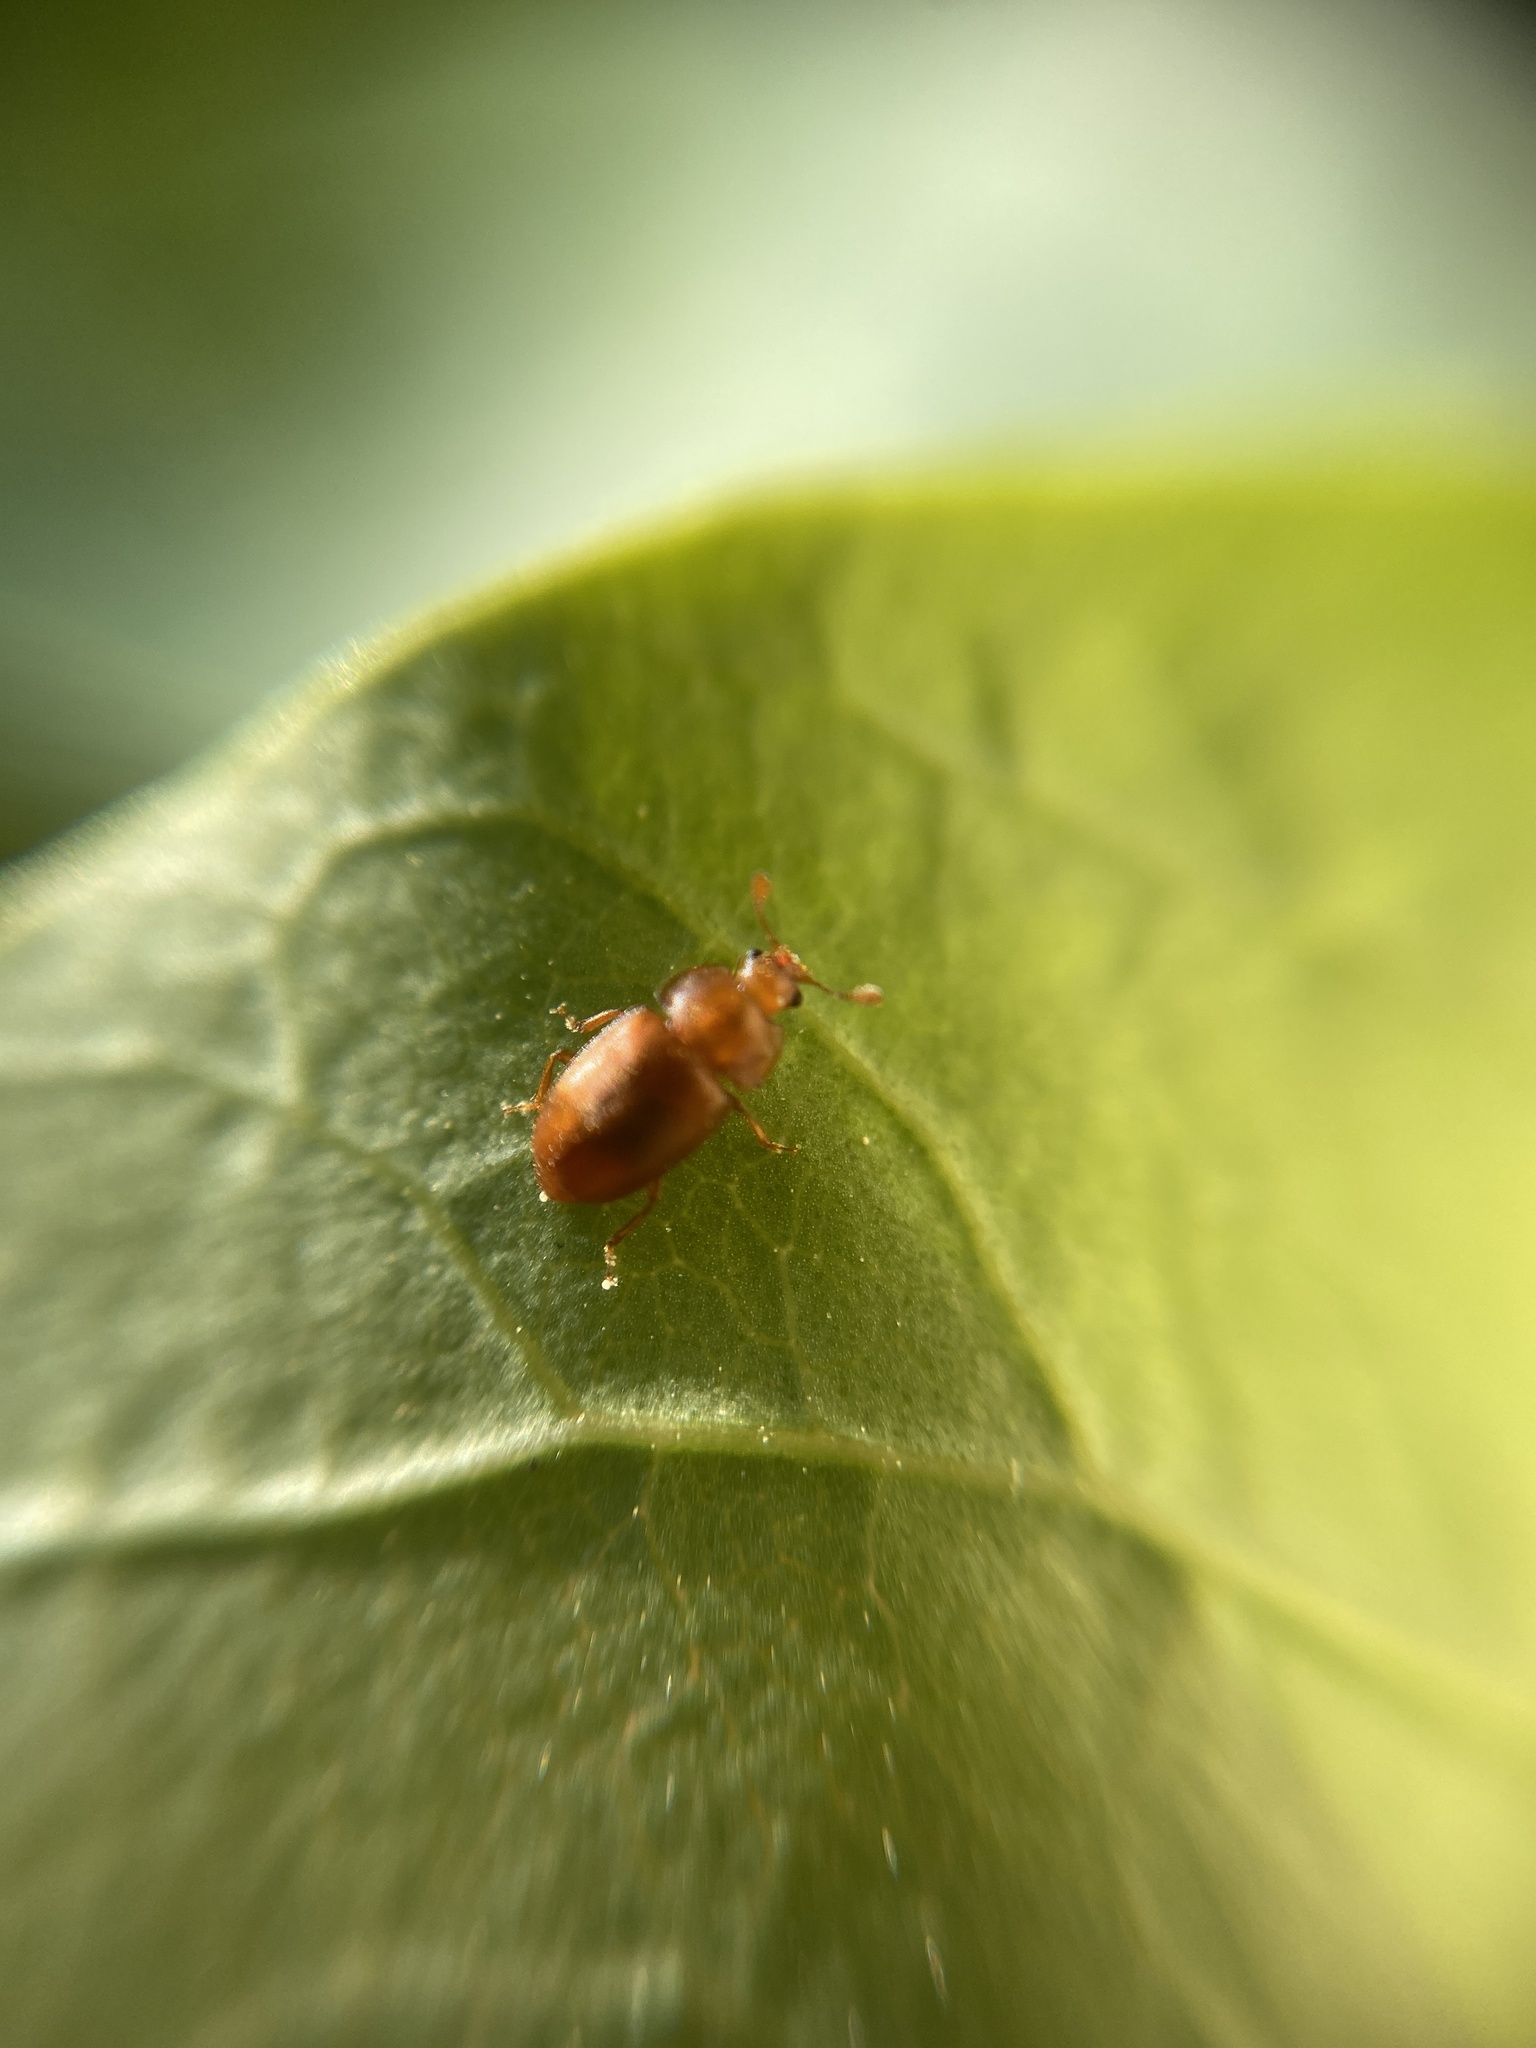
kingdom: Animalia
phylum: Arthropoda
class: Insecta
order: Coleoptera
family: Nitidulidae
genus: Epuraea
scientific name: Epuraea aestiva
